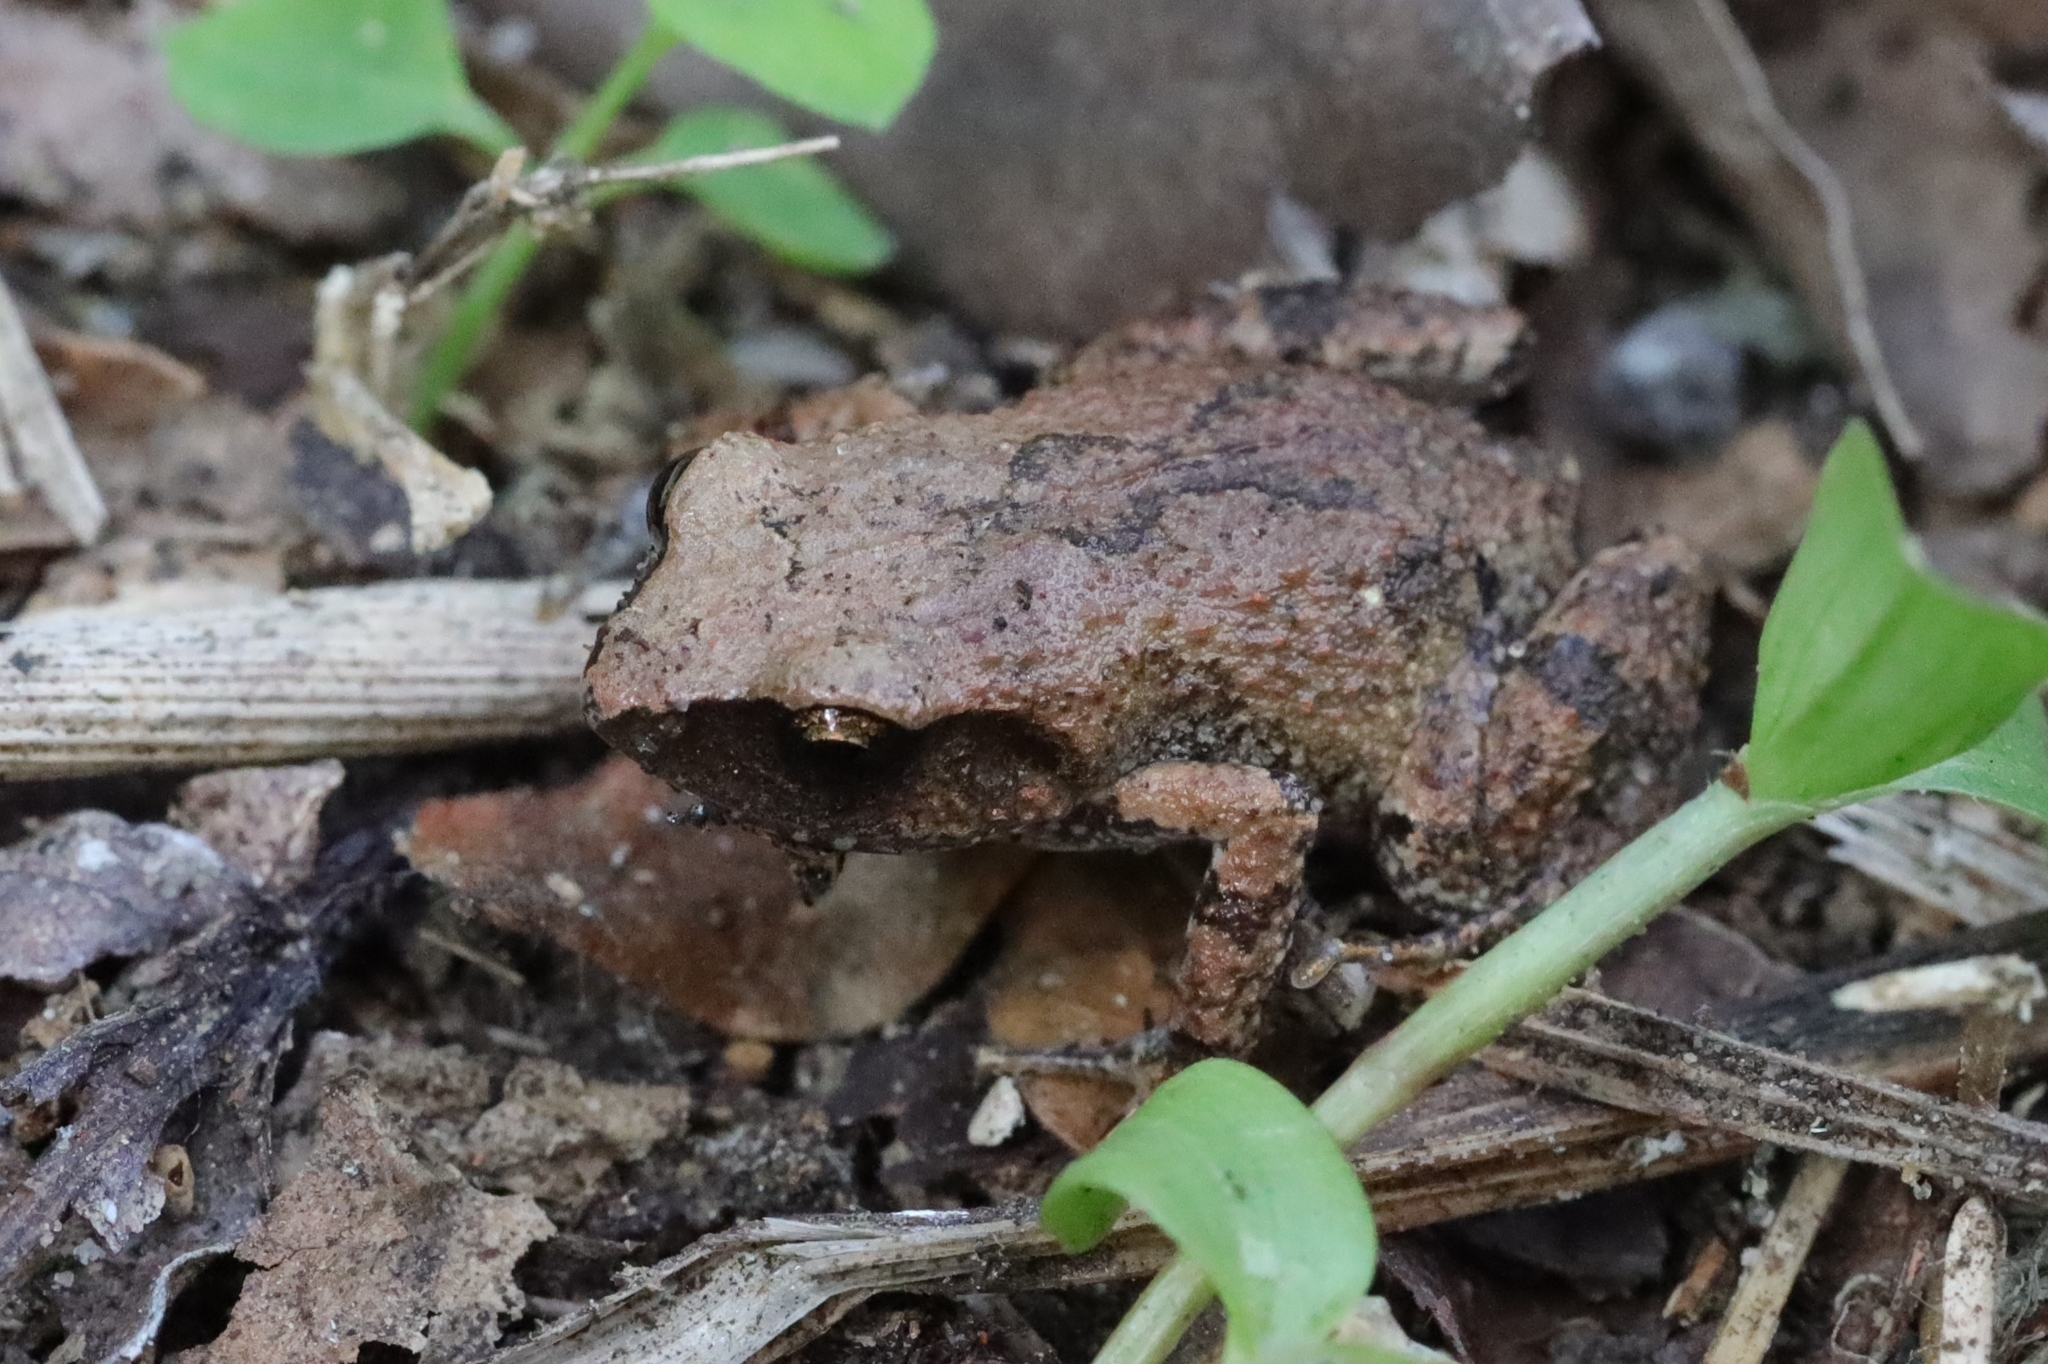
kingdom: Animalia
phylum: Chordata
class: Amphibia
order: Anura
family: Arthroleptidae
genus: Arthroleptis
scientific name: Arthroleptis wahlbergii
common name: Bush squeaker
